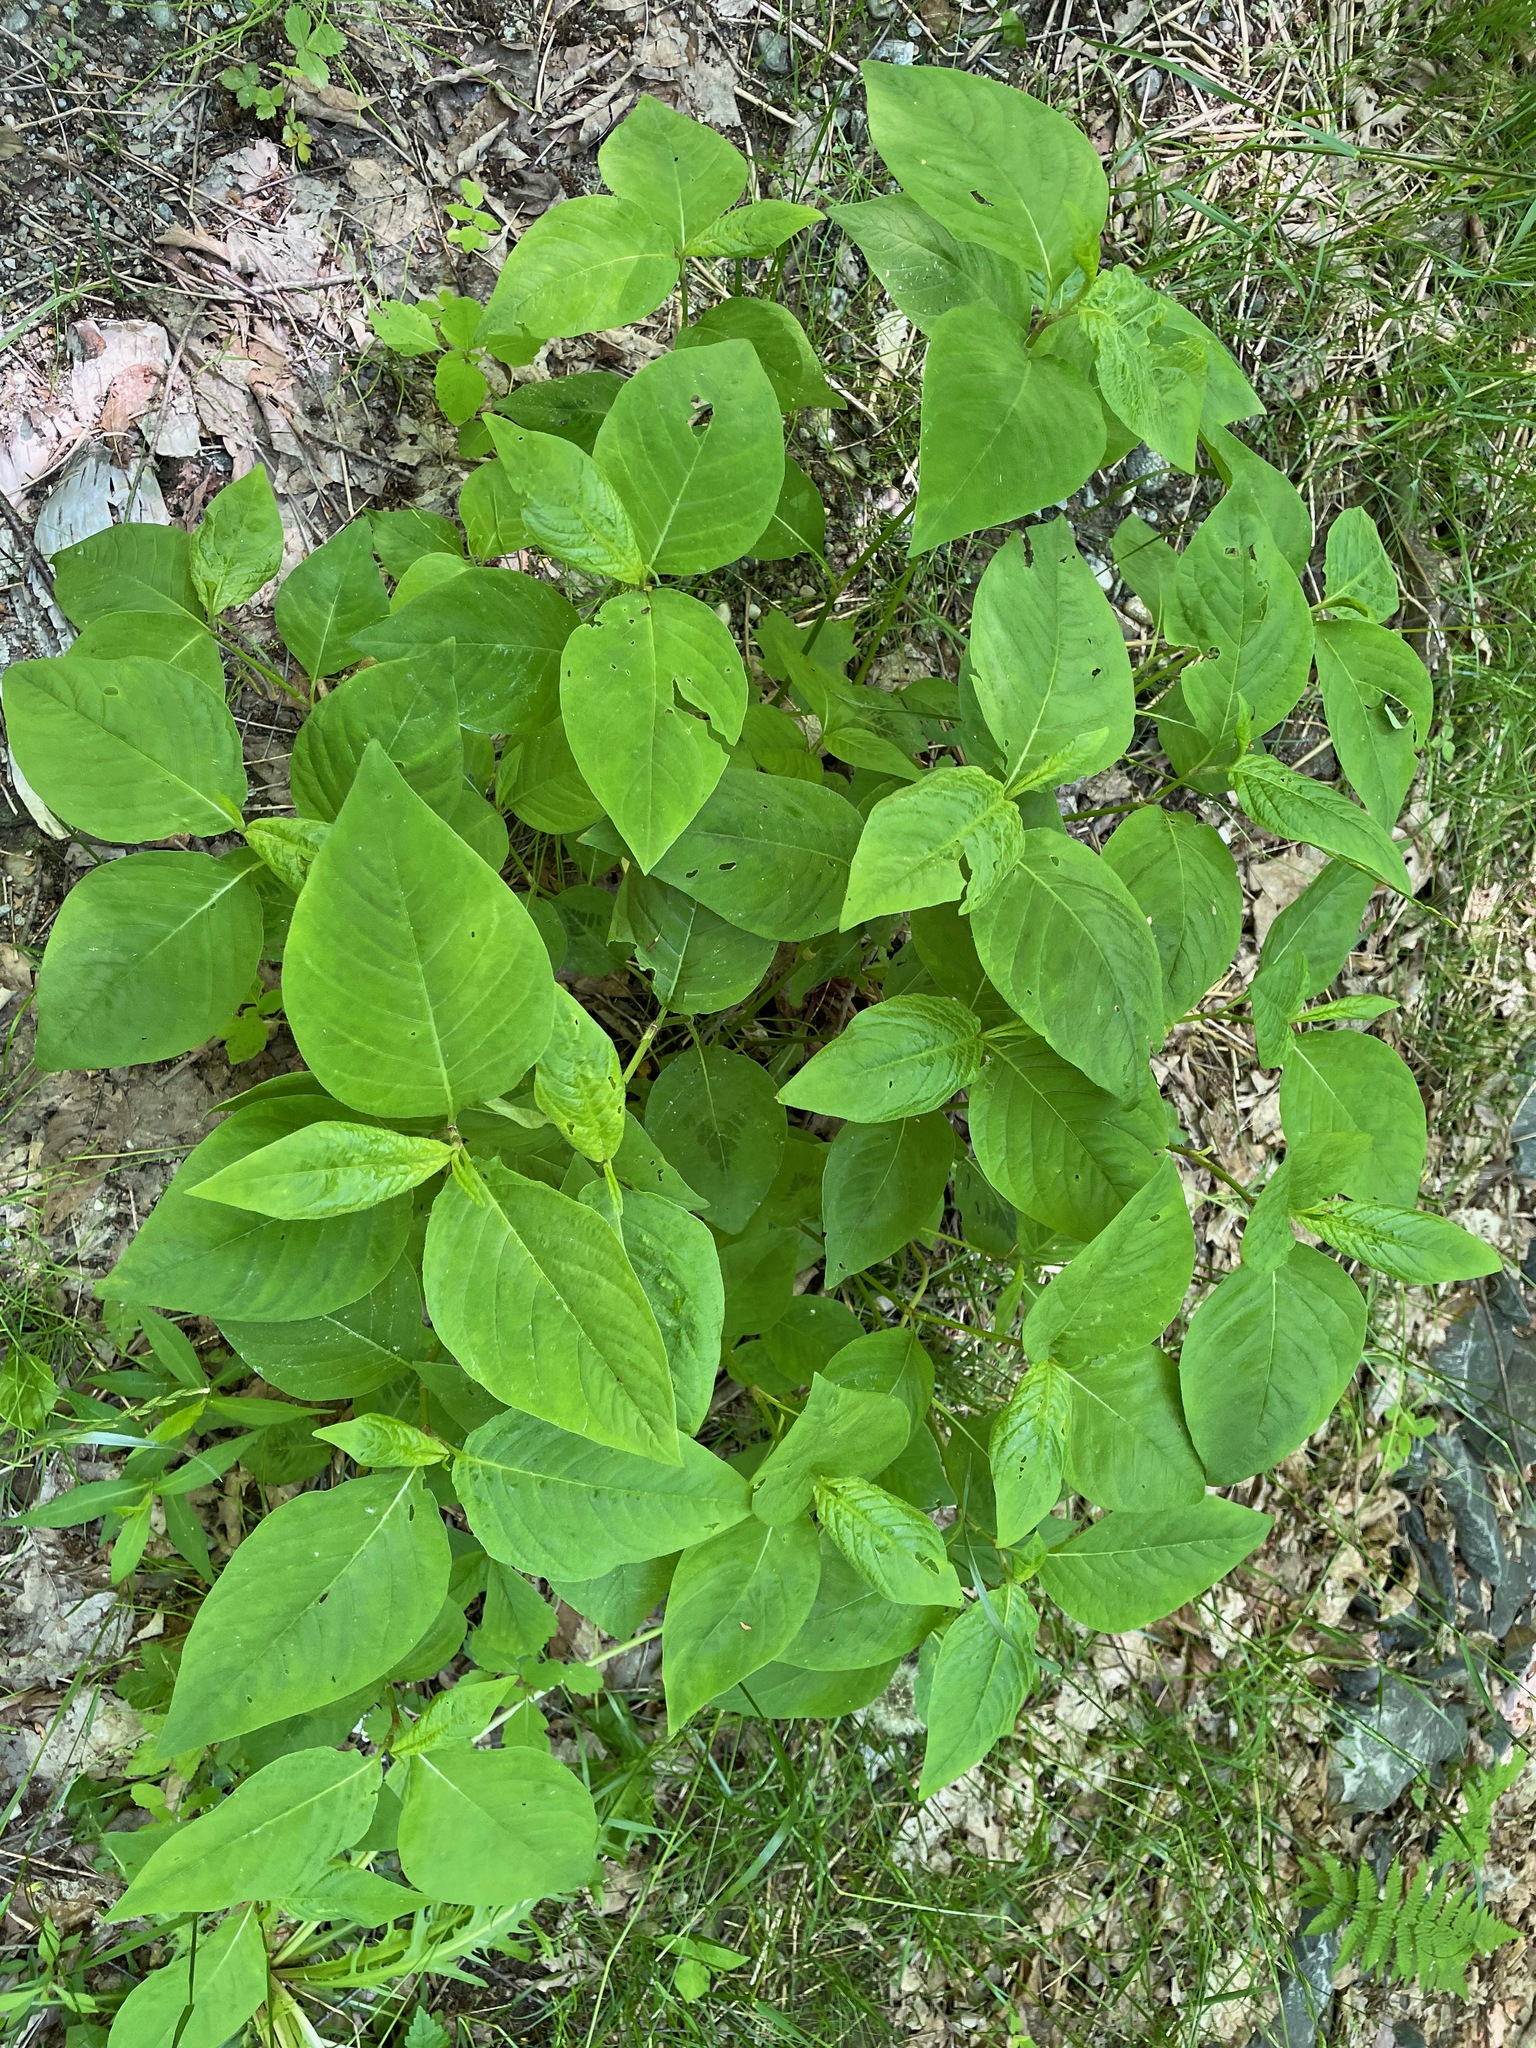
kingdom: Plantae
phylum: Tracheophyta
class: Magnoliopsida
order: Caryophyllales
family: Polygonaceae
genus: Persicaria
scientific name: Persicaria virginiana
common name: Jumpseed
